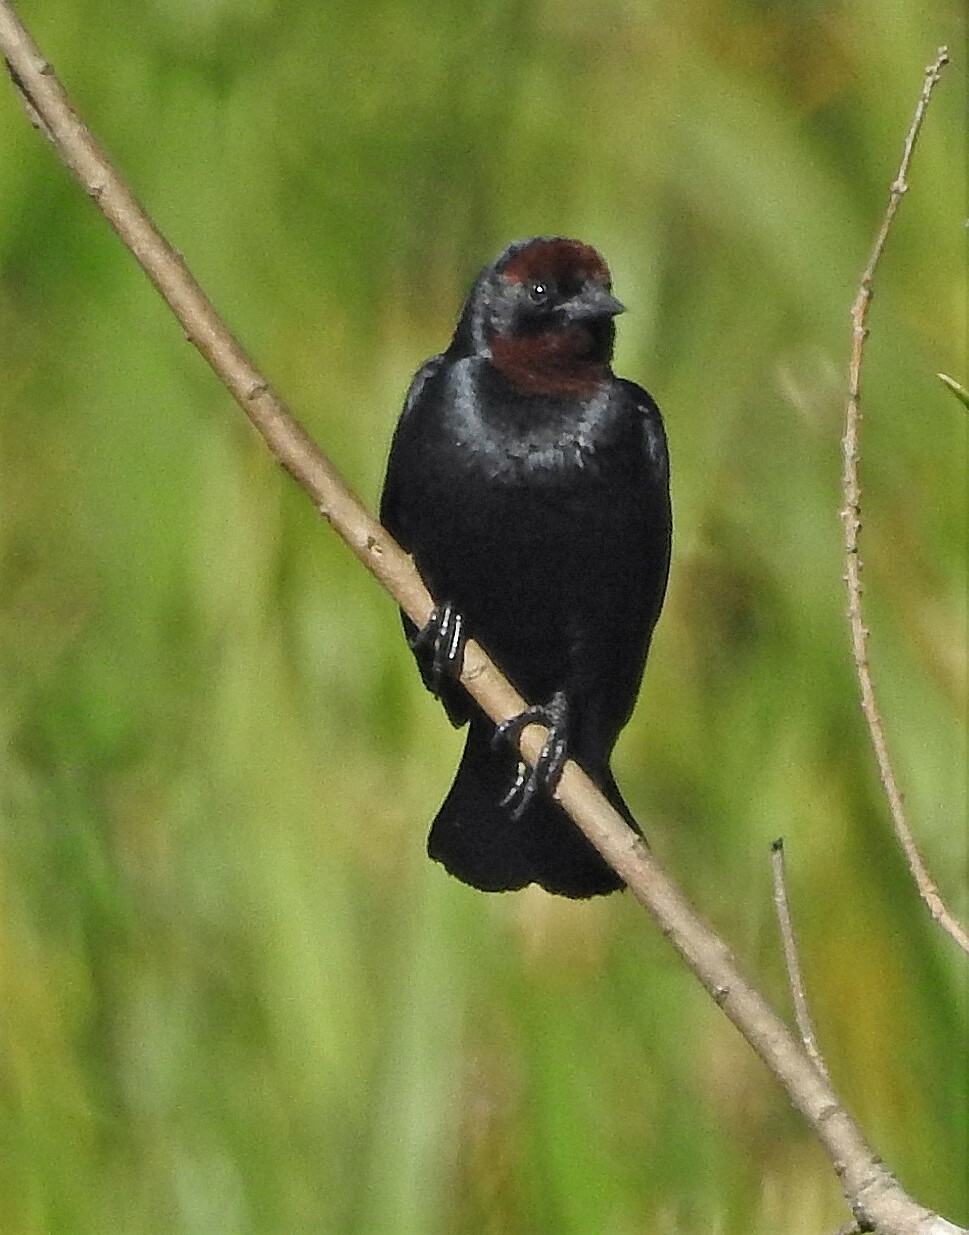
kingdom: Animalia
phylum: Chordata
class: Aves
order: Passeriformes
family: Icteridae
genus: Chrysomus
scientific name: Chrysomus ruficapillus
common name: Chestnut-capped blackbird
